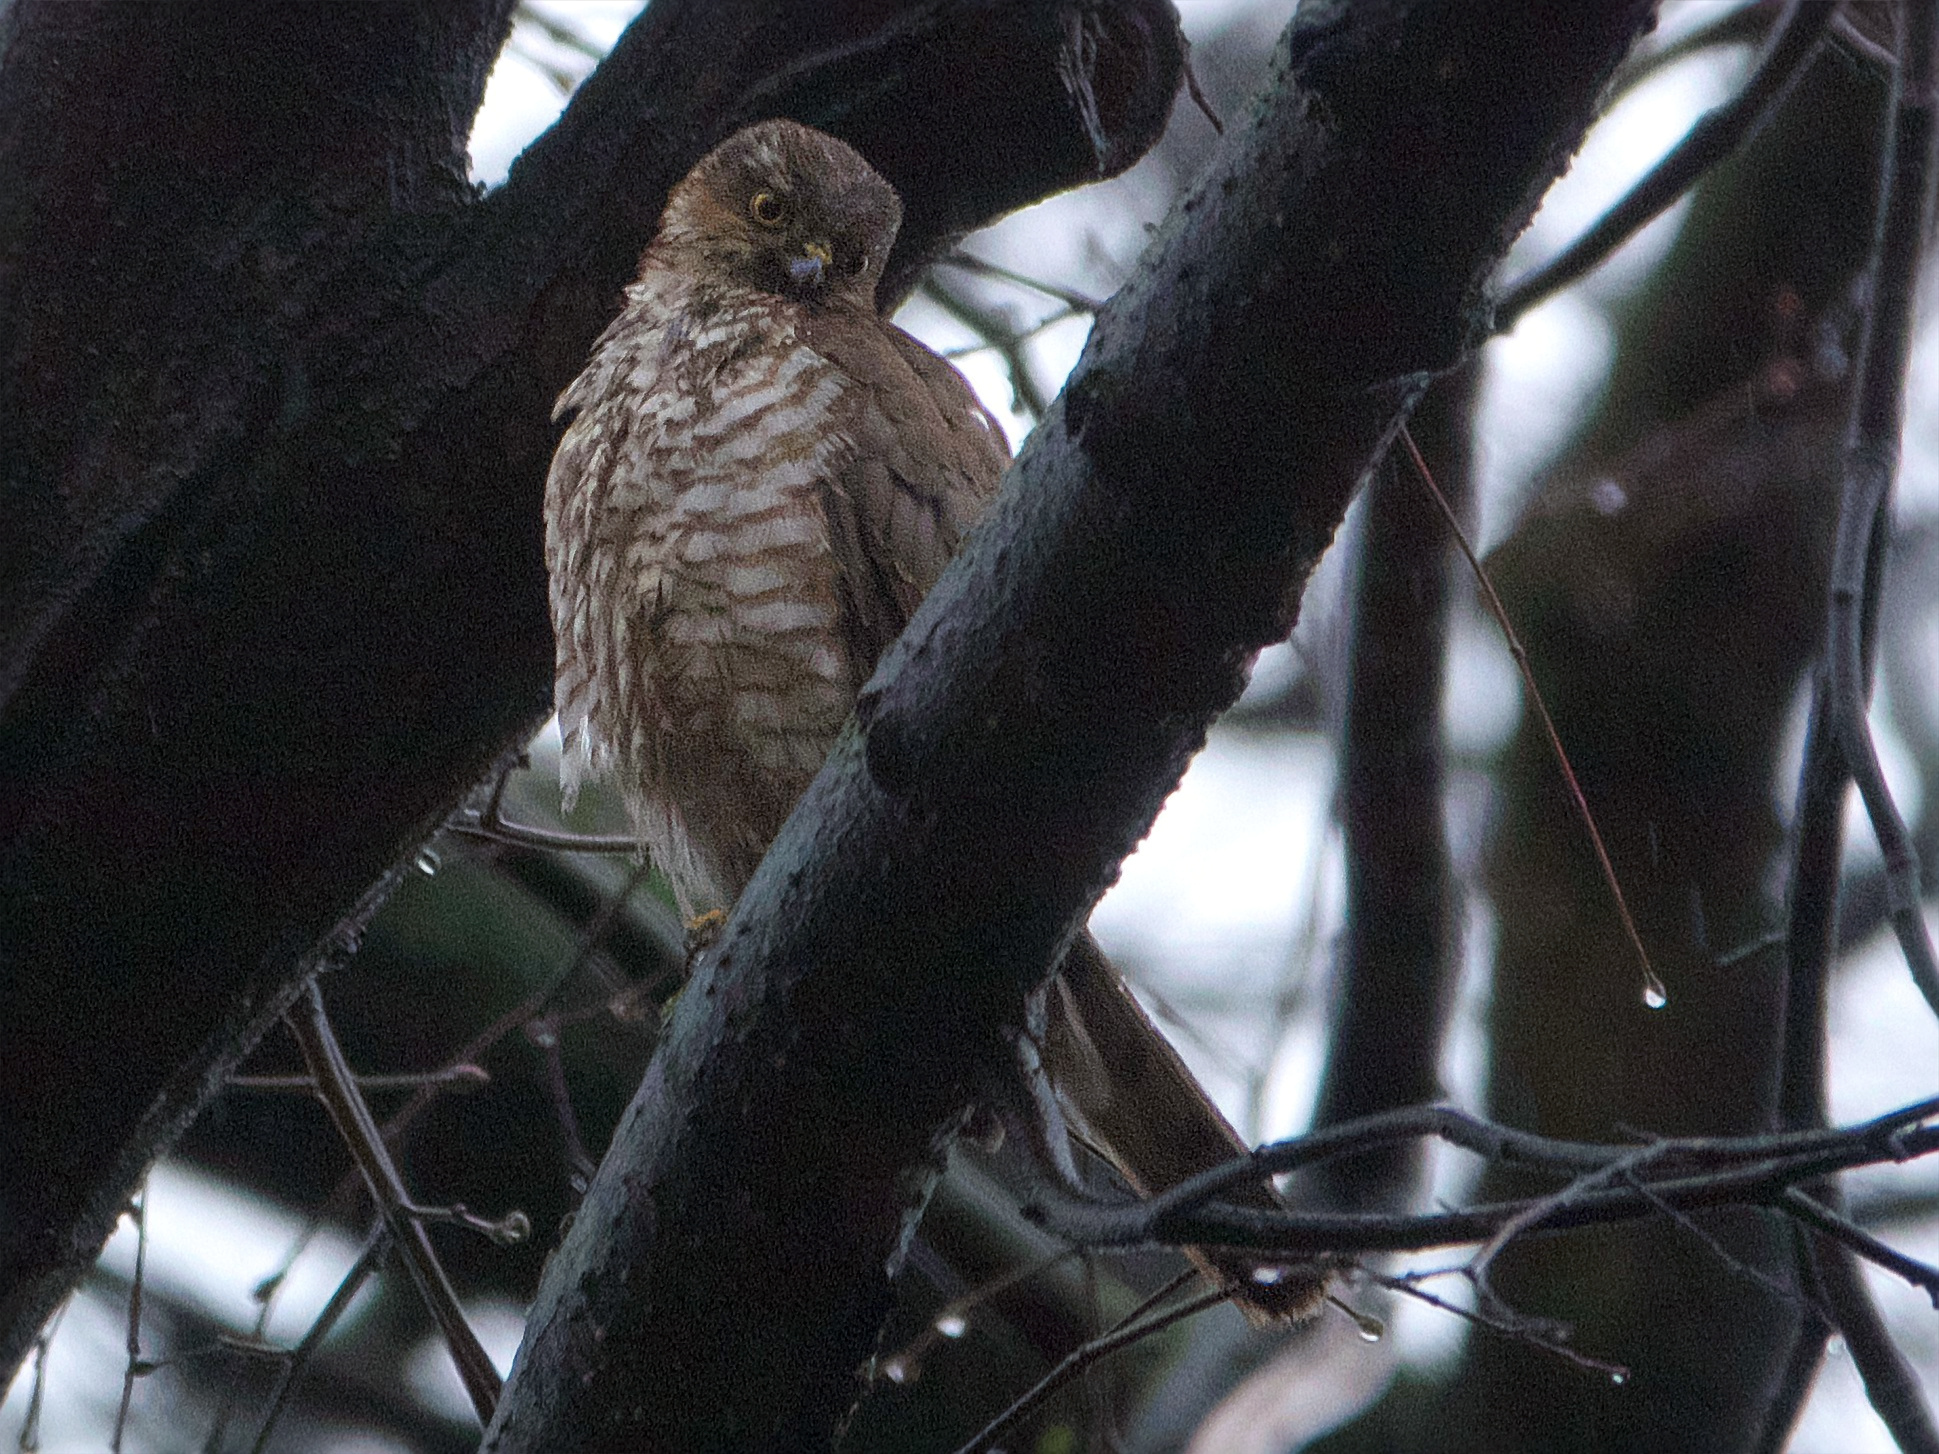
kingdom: Animalia
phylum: Chordata
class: Aves
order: Accipitriformes
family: Accipitridae
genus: Accipiter
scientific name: Accipiter nisus
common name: Eurasian sparrowhawk
